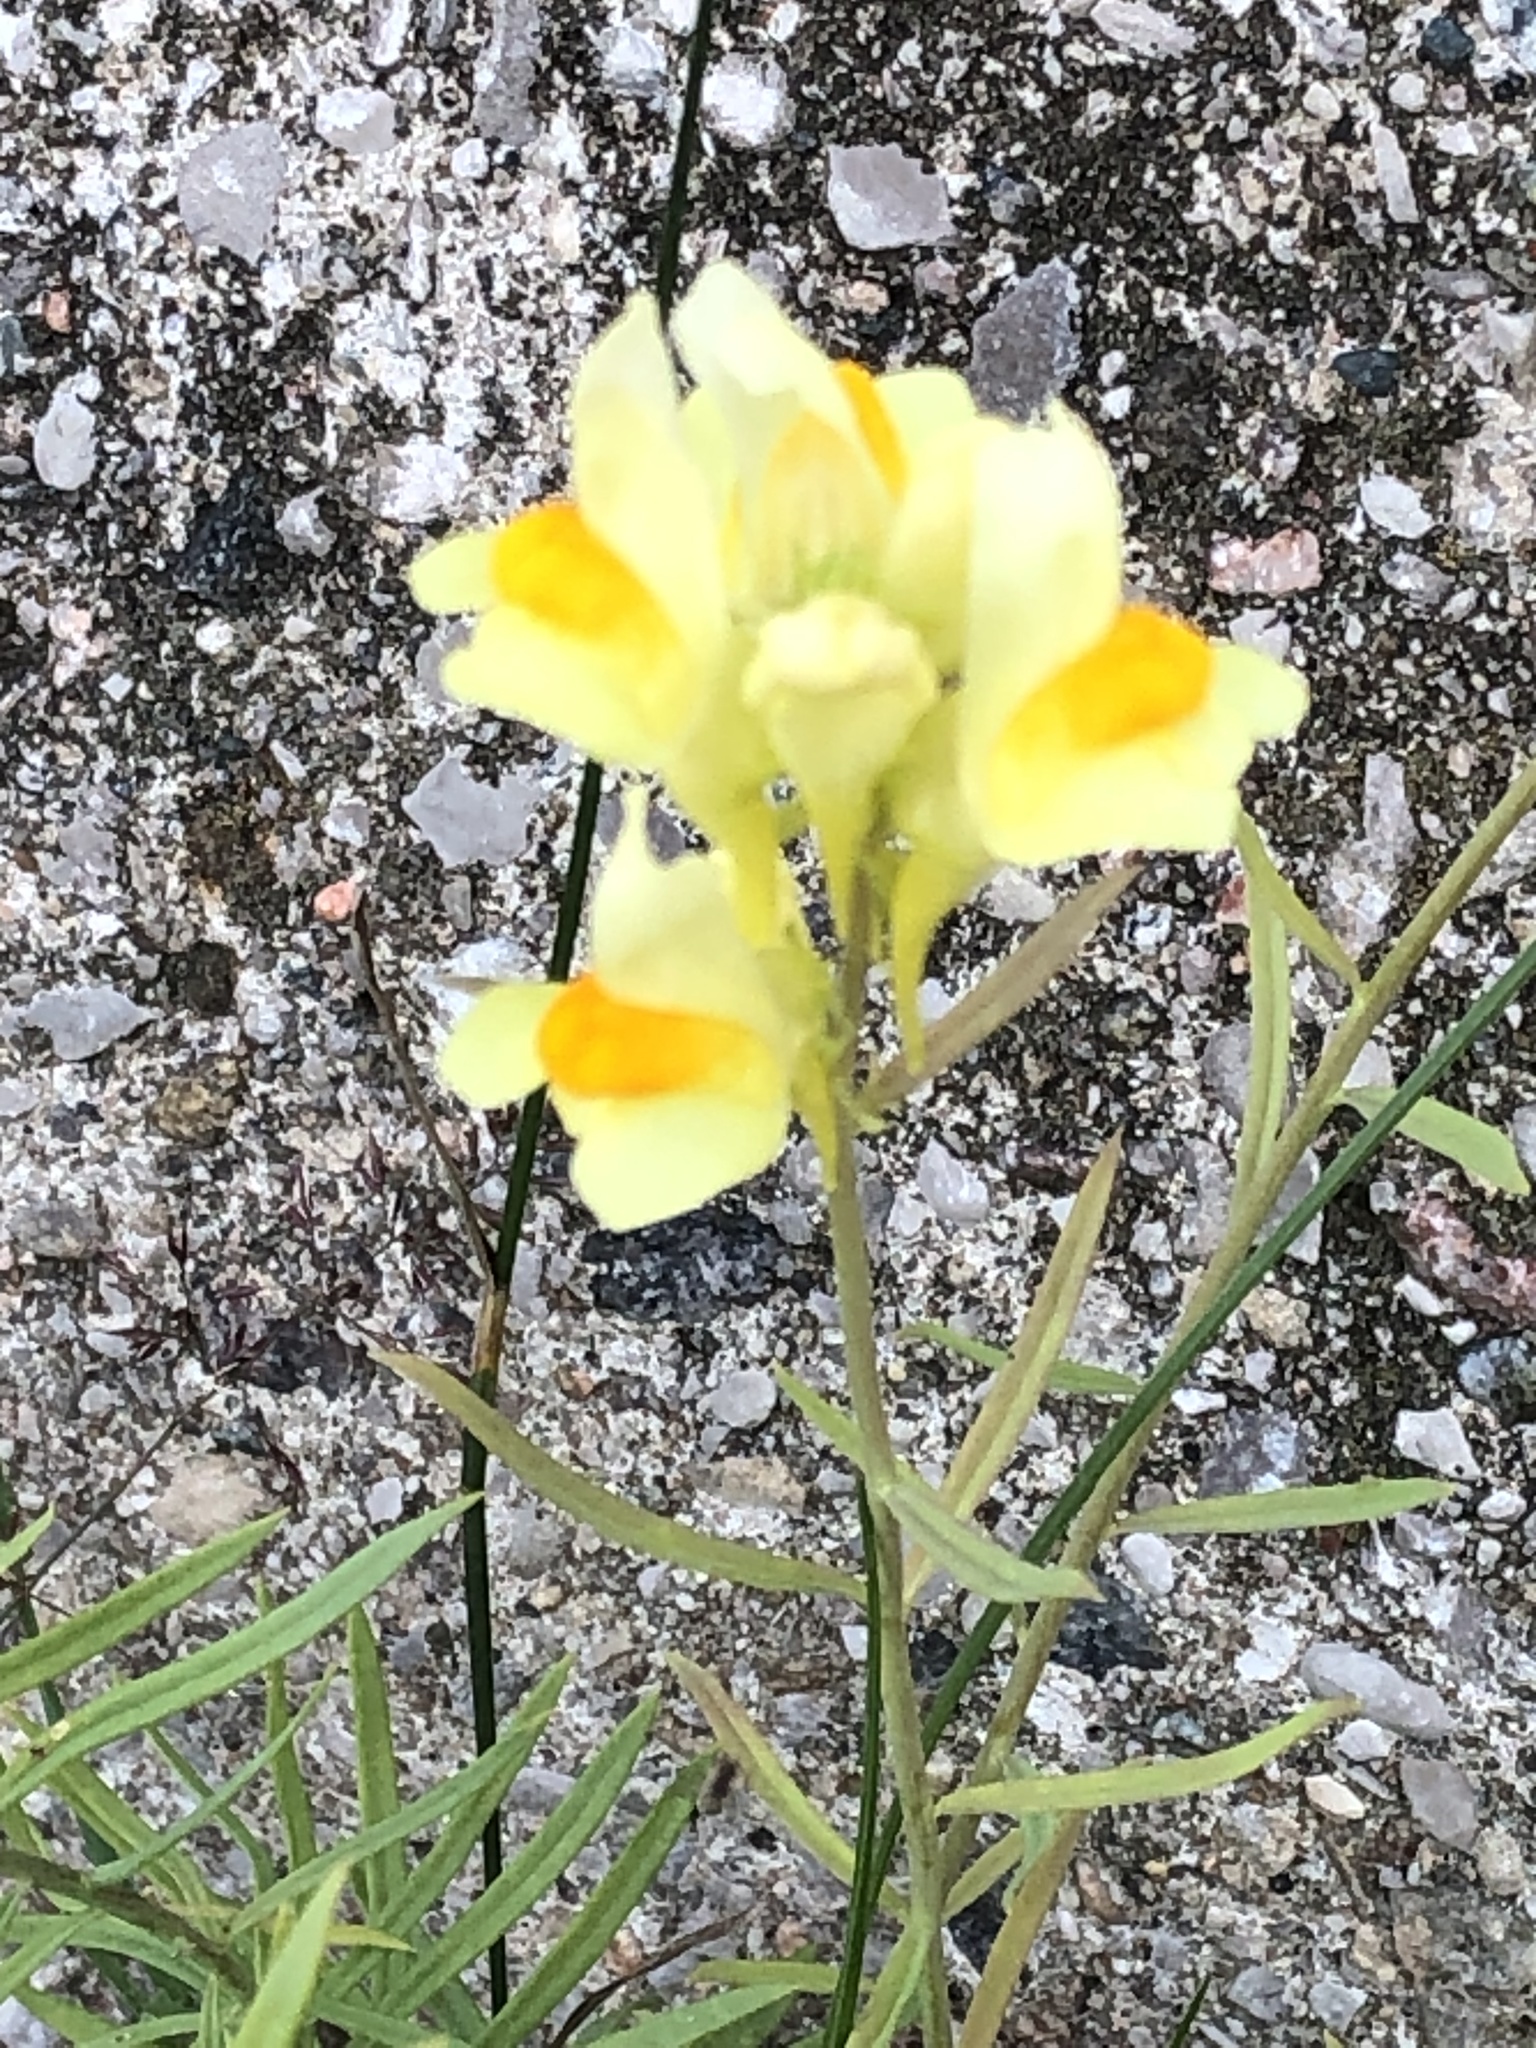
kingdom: Plantae
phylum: Tracheophyta
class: Magnoliopsida
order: Lamiales
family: Plantaginaceae
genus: Linaria
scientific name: Linaria vulgaris
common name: Butter and eggs
